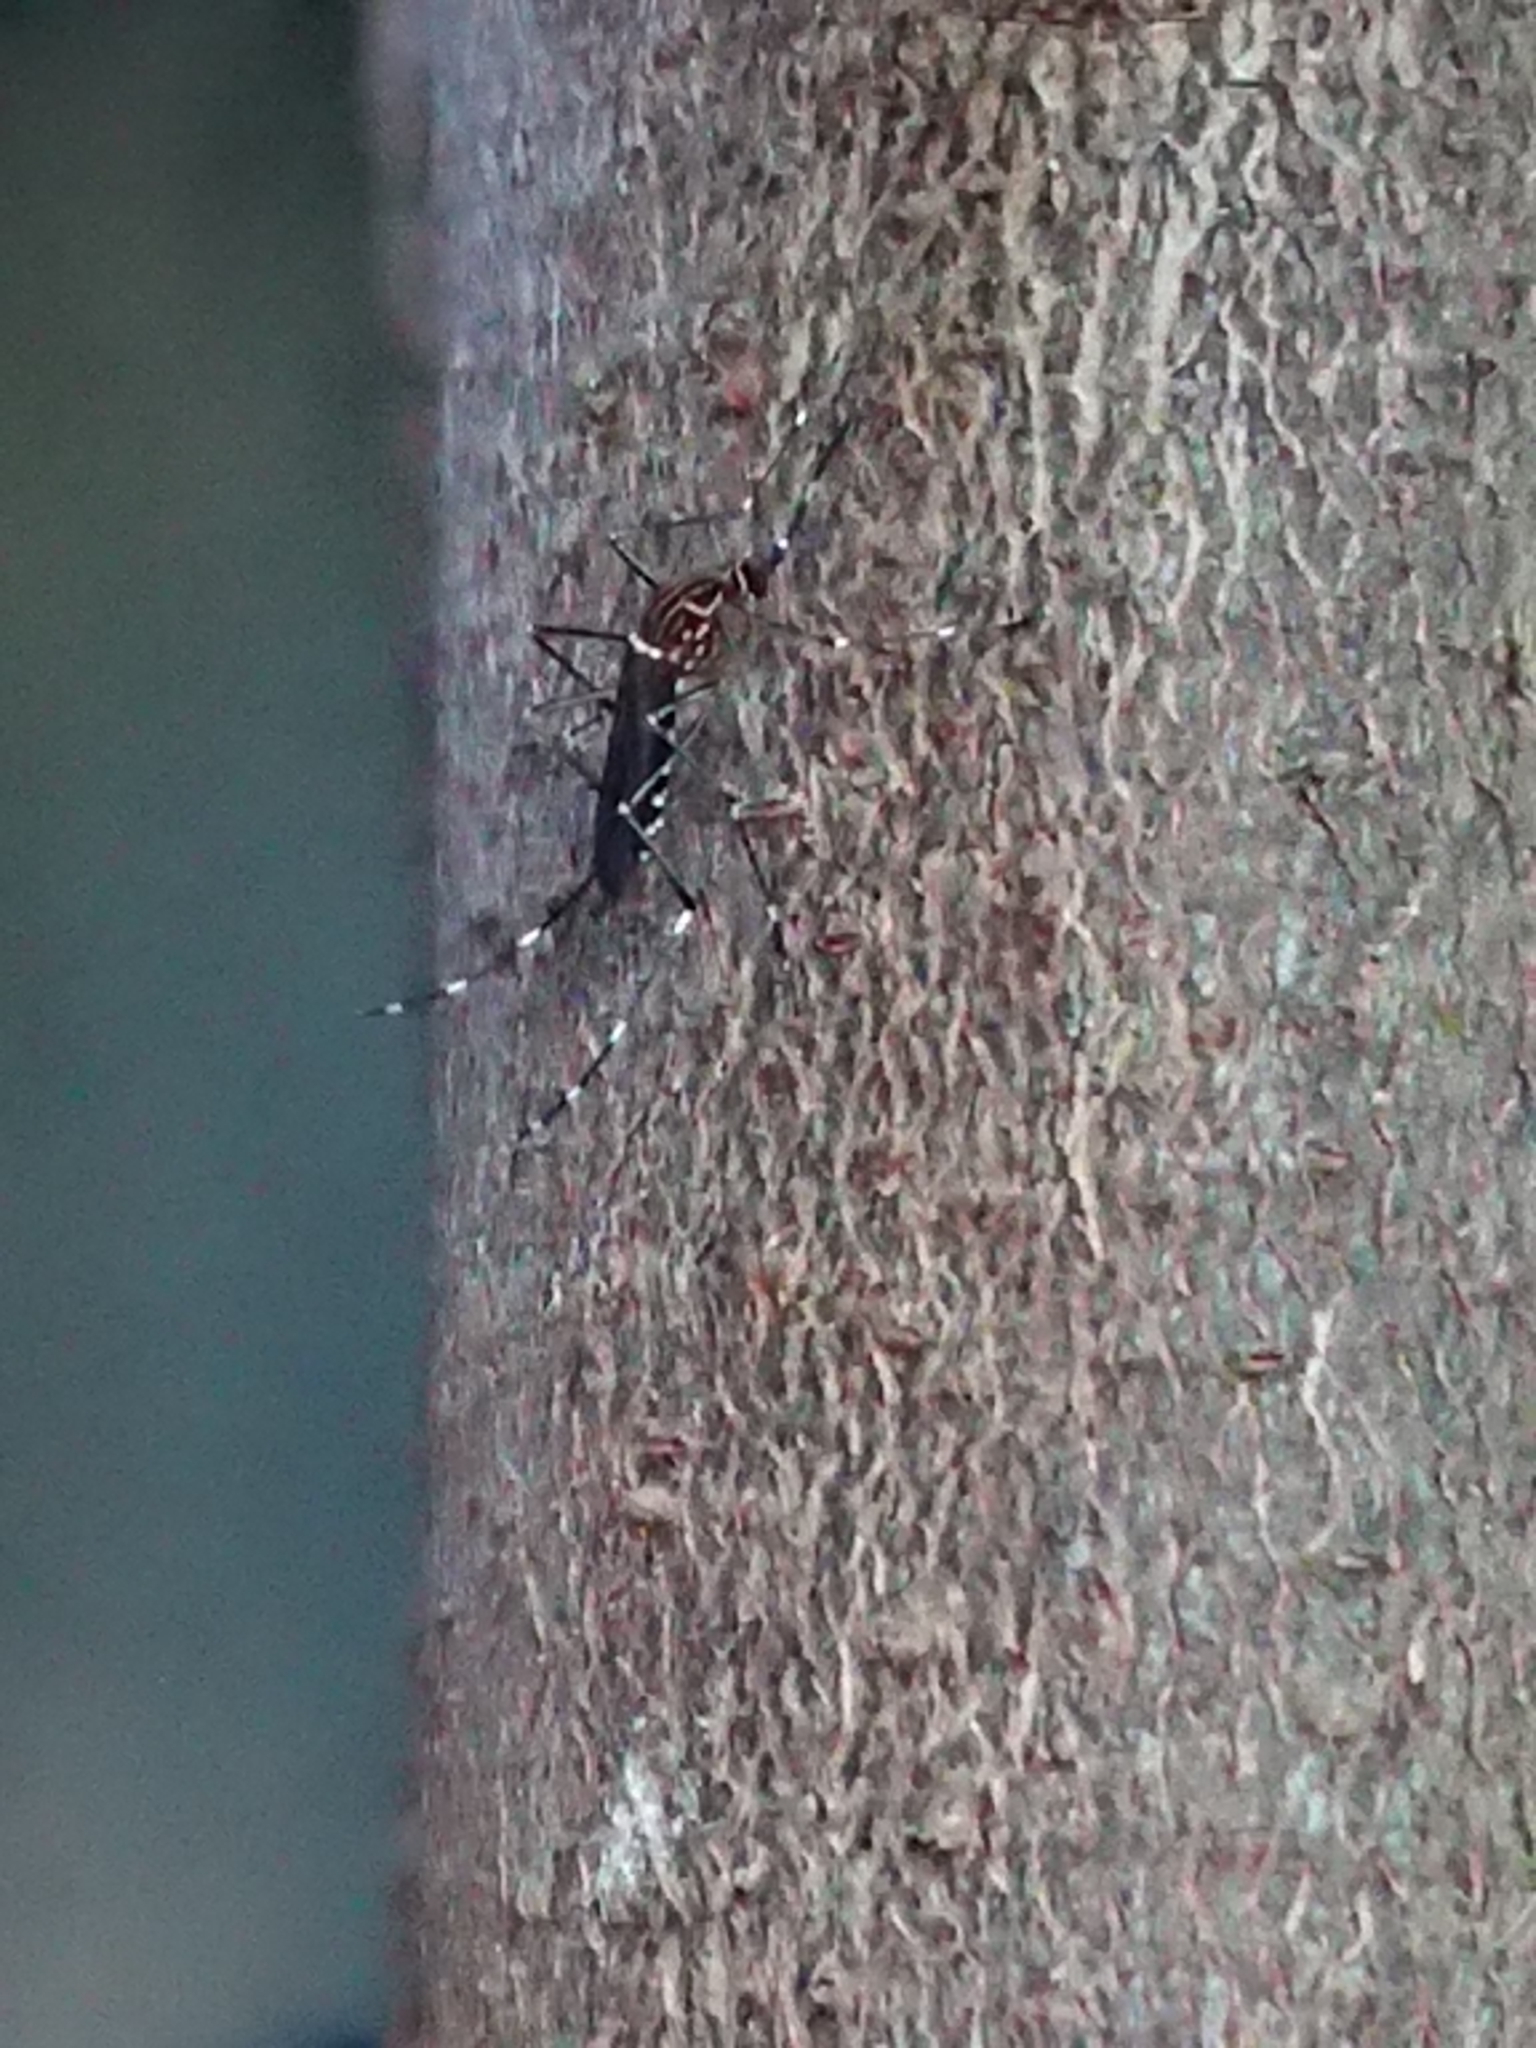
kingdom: Animalia
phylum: Arthropoda
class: Insecta
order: Diptera
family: Culicidae
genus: Aedes
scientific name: Aedes notoscriptus
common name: Australian backyard mosquito
